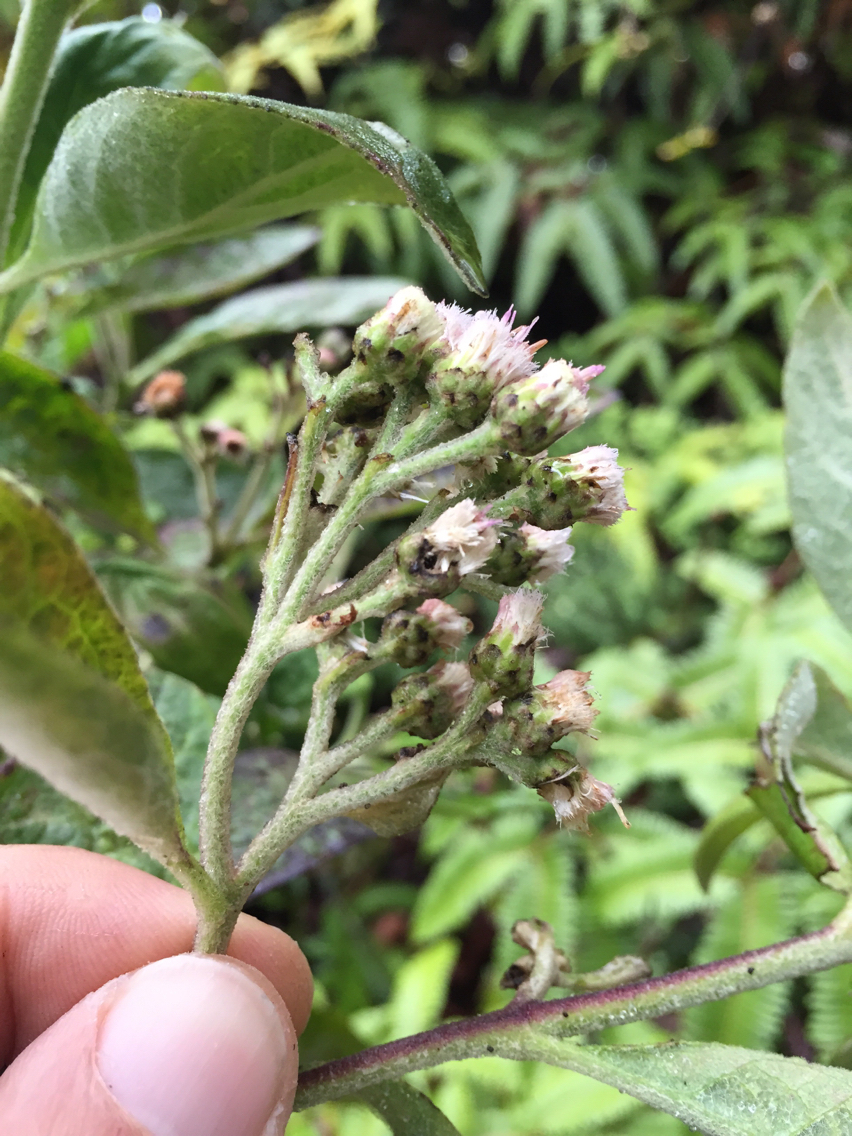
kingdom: Plantae
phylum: Tracheophyta
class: Magnoliopsida
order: Asterales
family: Asteraceae
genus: Pluchea
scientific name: Pluchea carolinensis
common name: Marsh fleabane
